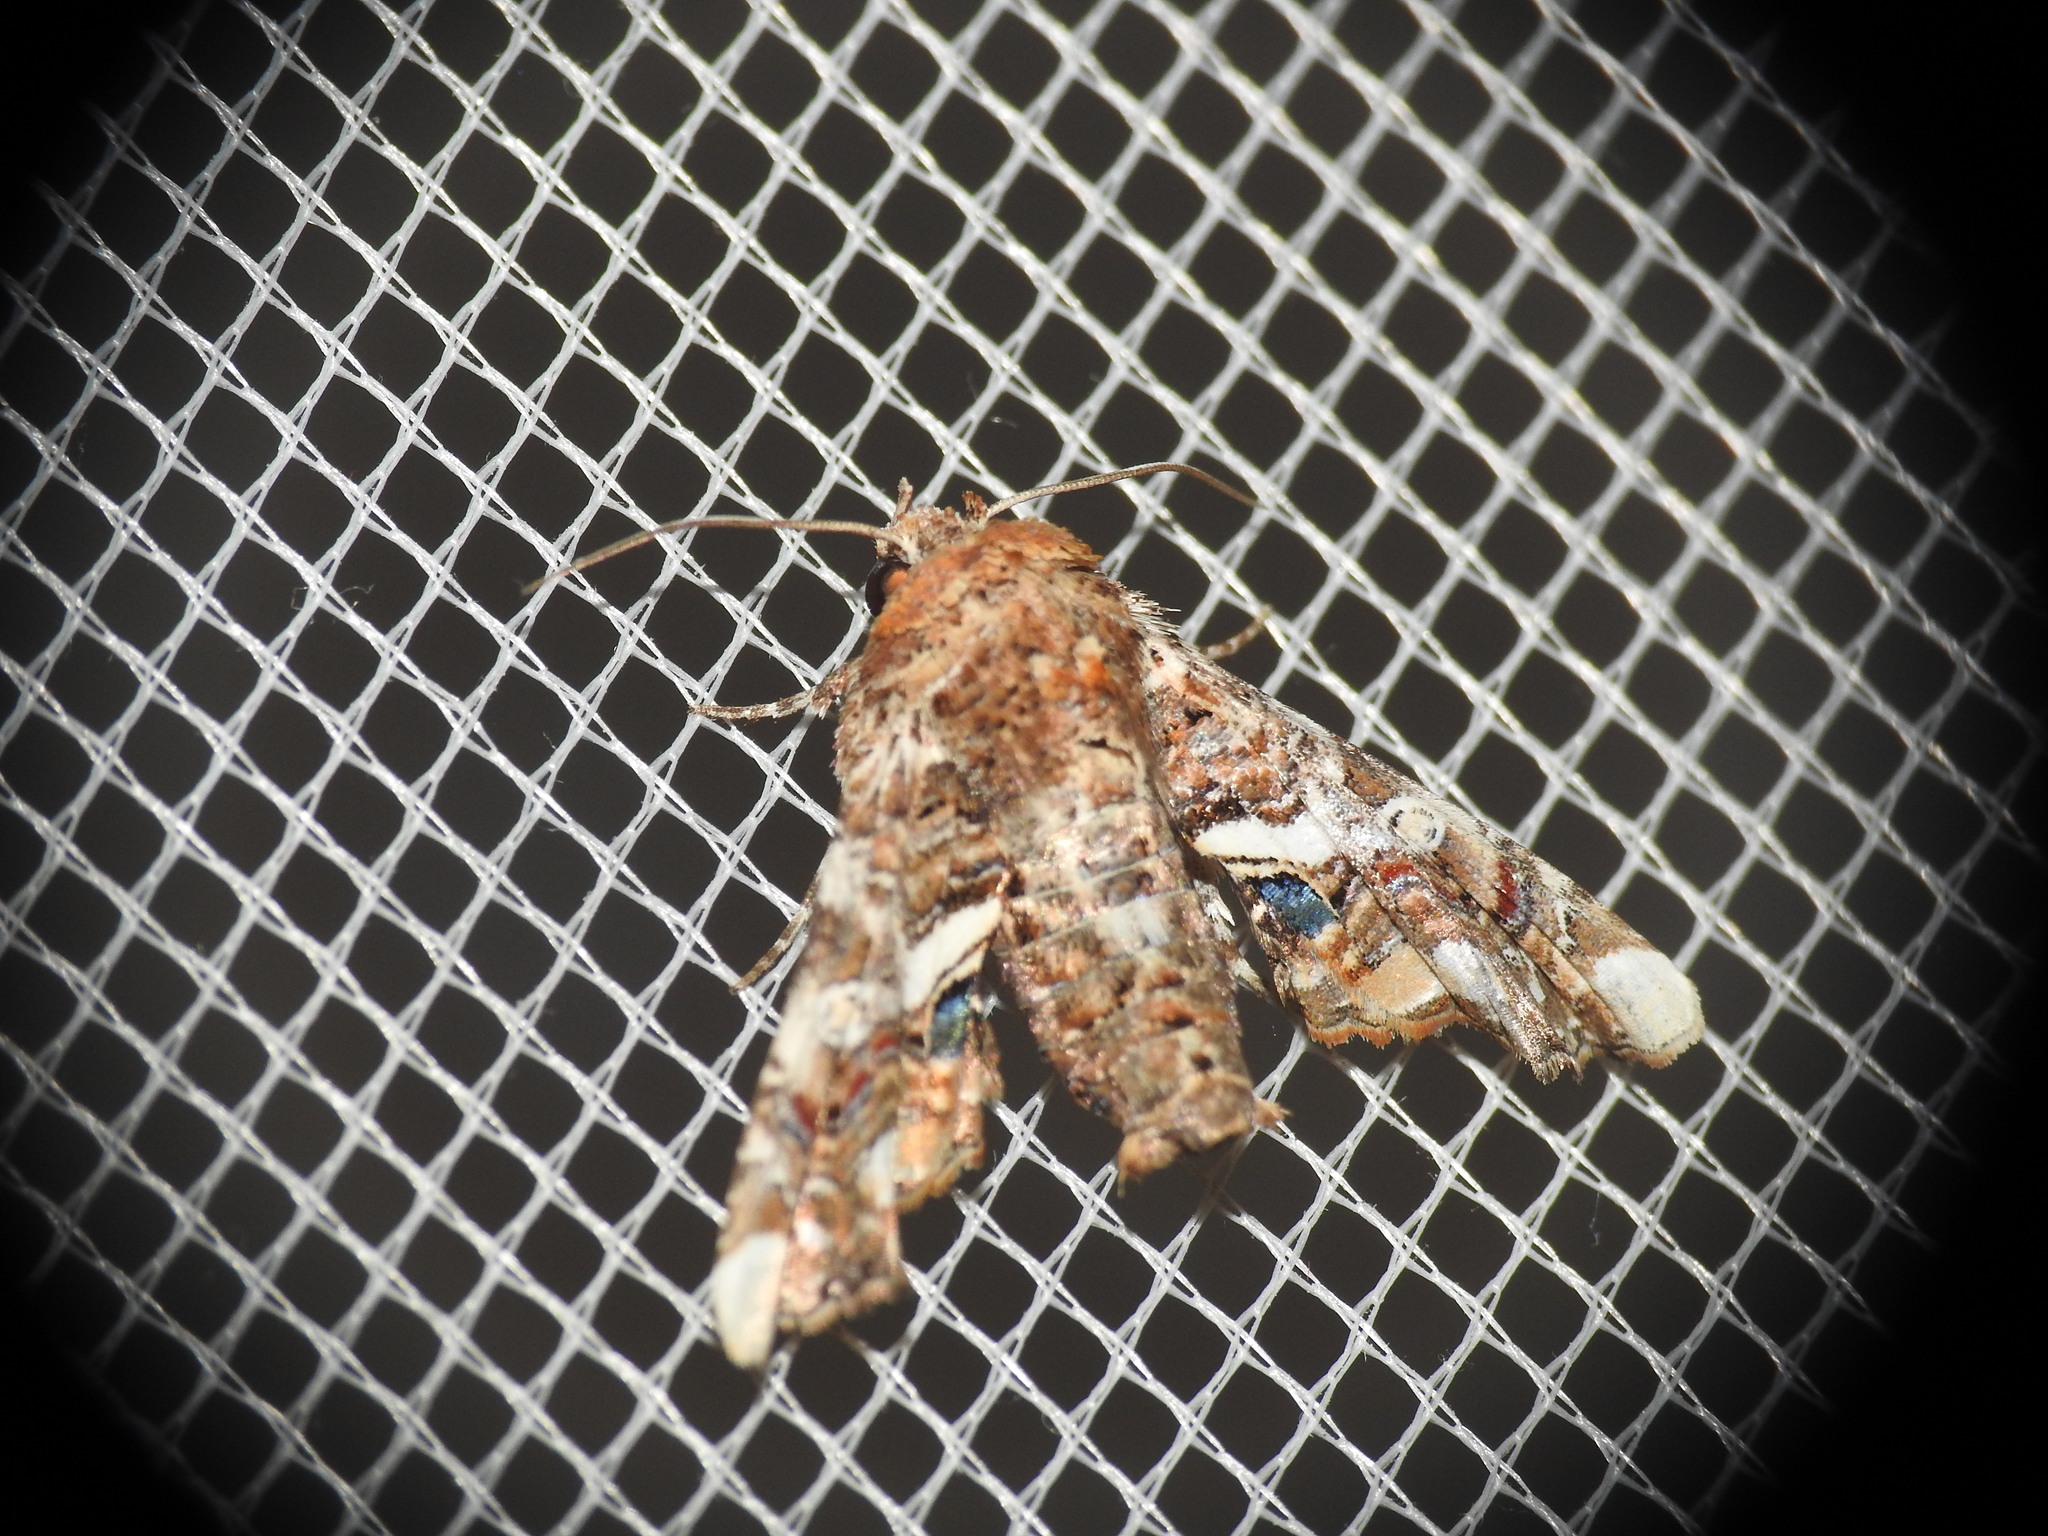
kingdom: Animalia
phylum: Arthropoda
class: Insecta
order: Lepidoptera
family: Euteliidae
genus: Eutelia
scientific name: Eutelia adulatrix
